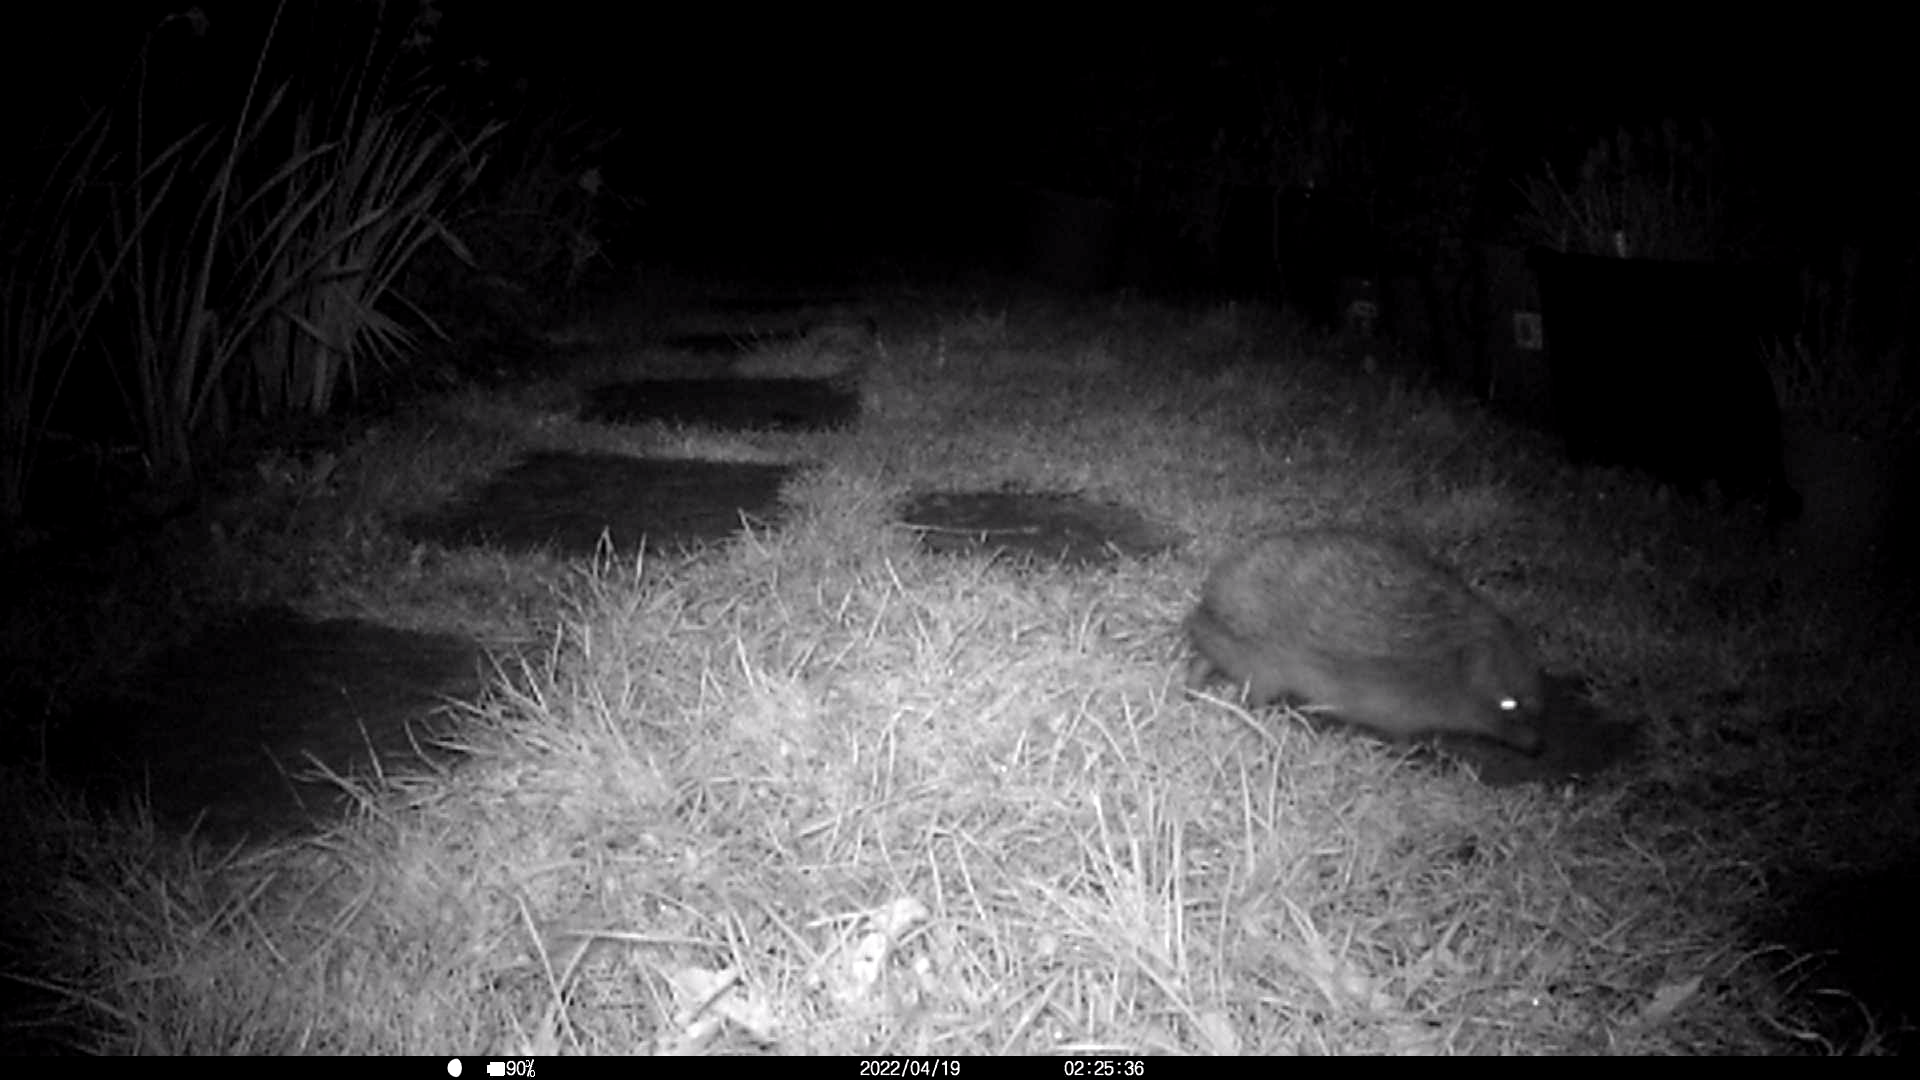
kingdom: Animalia
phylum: Chordata
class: Mammalia
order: Erinaceomorpha
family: Erinaceidae
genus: Erinaceus
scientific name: Erinaceus europaeus
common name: West european hedgehog
